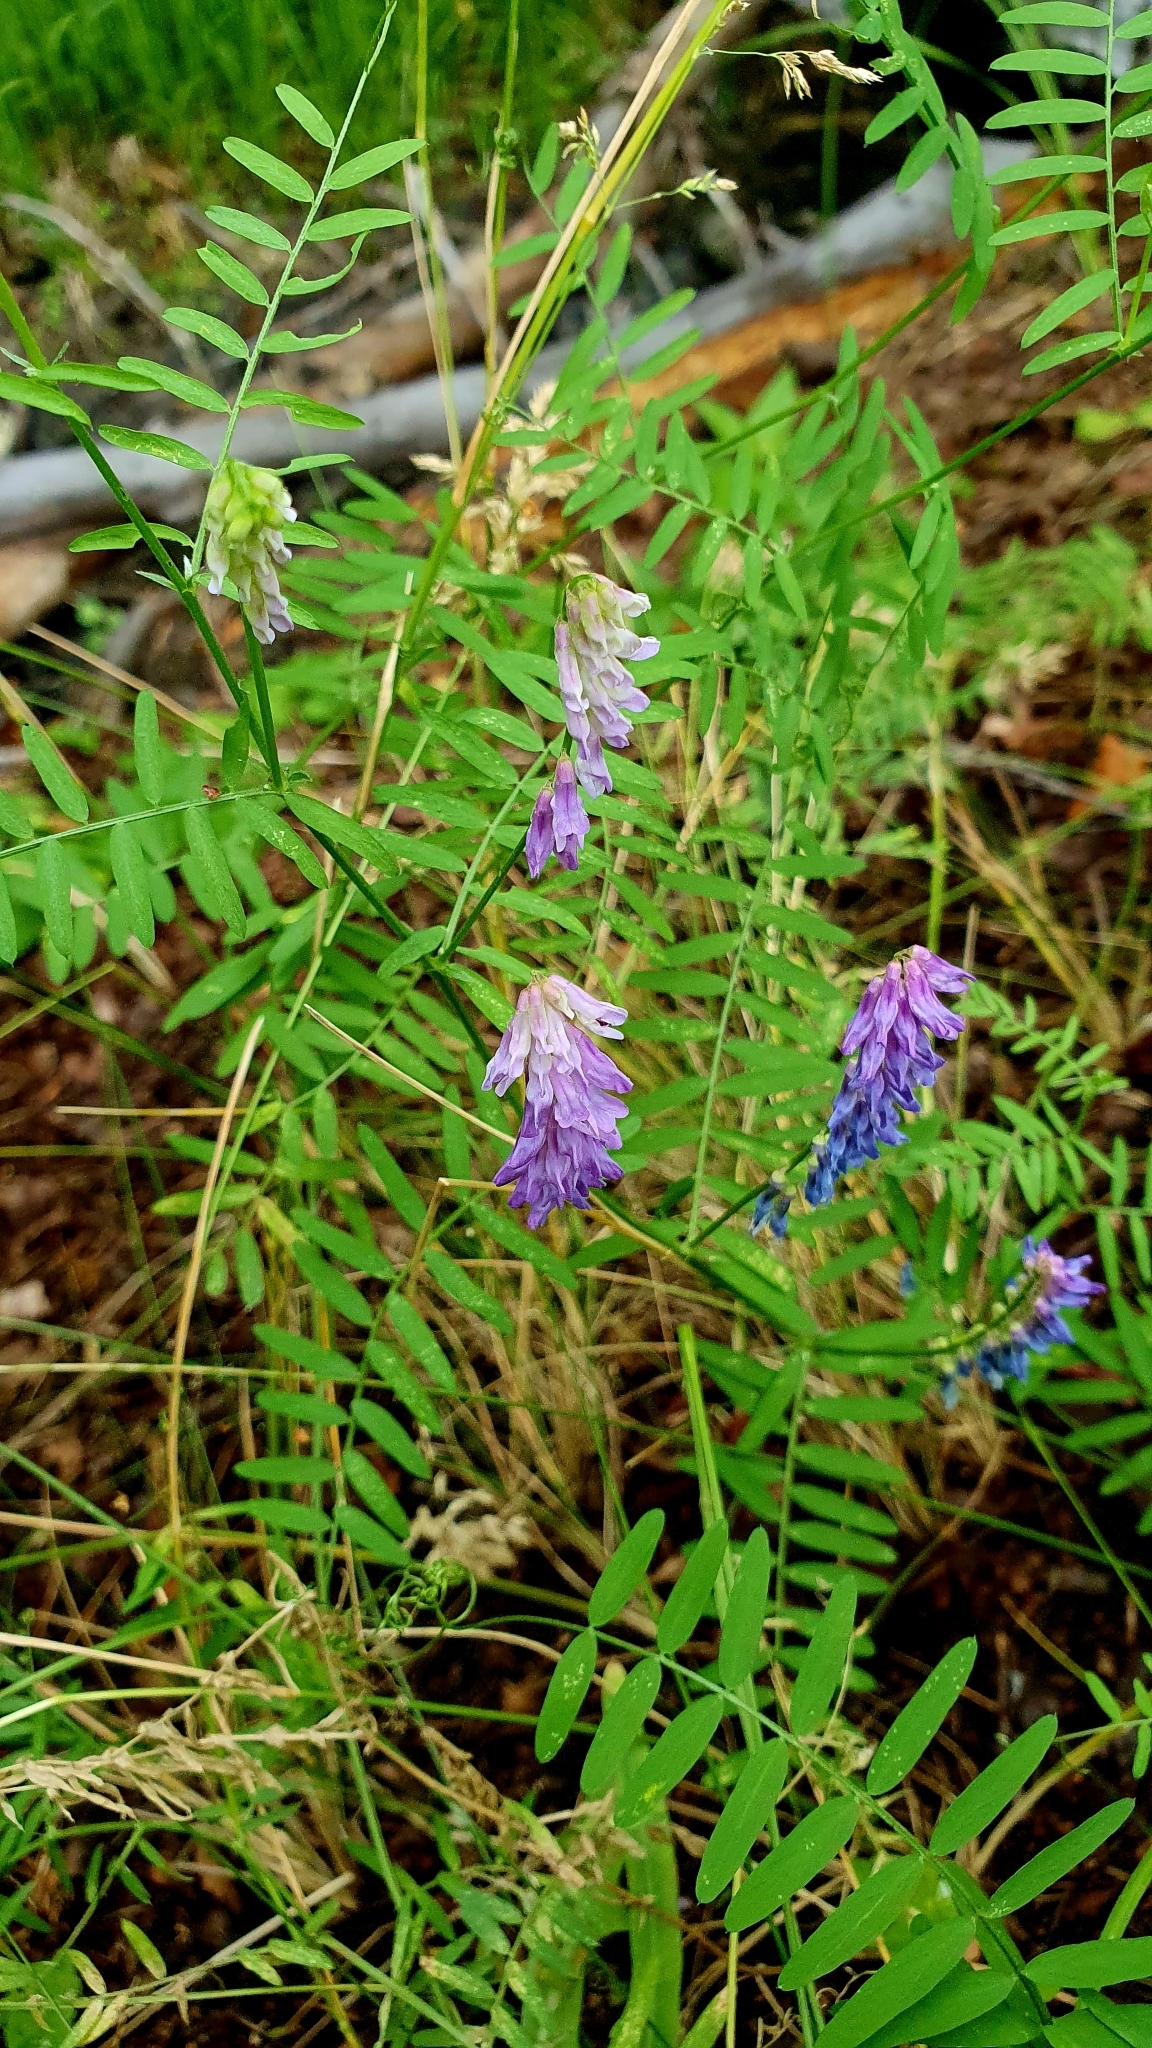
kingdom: Plantae
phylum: Tracheophyta
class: Magnoliopsida
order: Fabales
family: Fabaceae
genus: Vicia
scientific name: Vicia cracca
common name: Bird vetch
